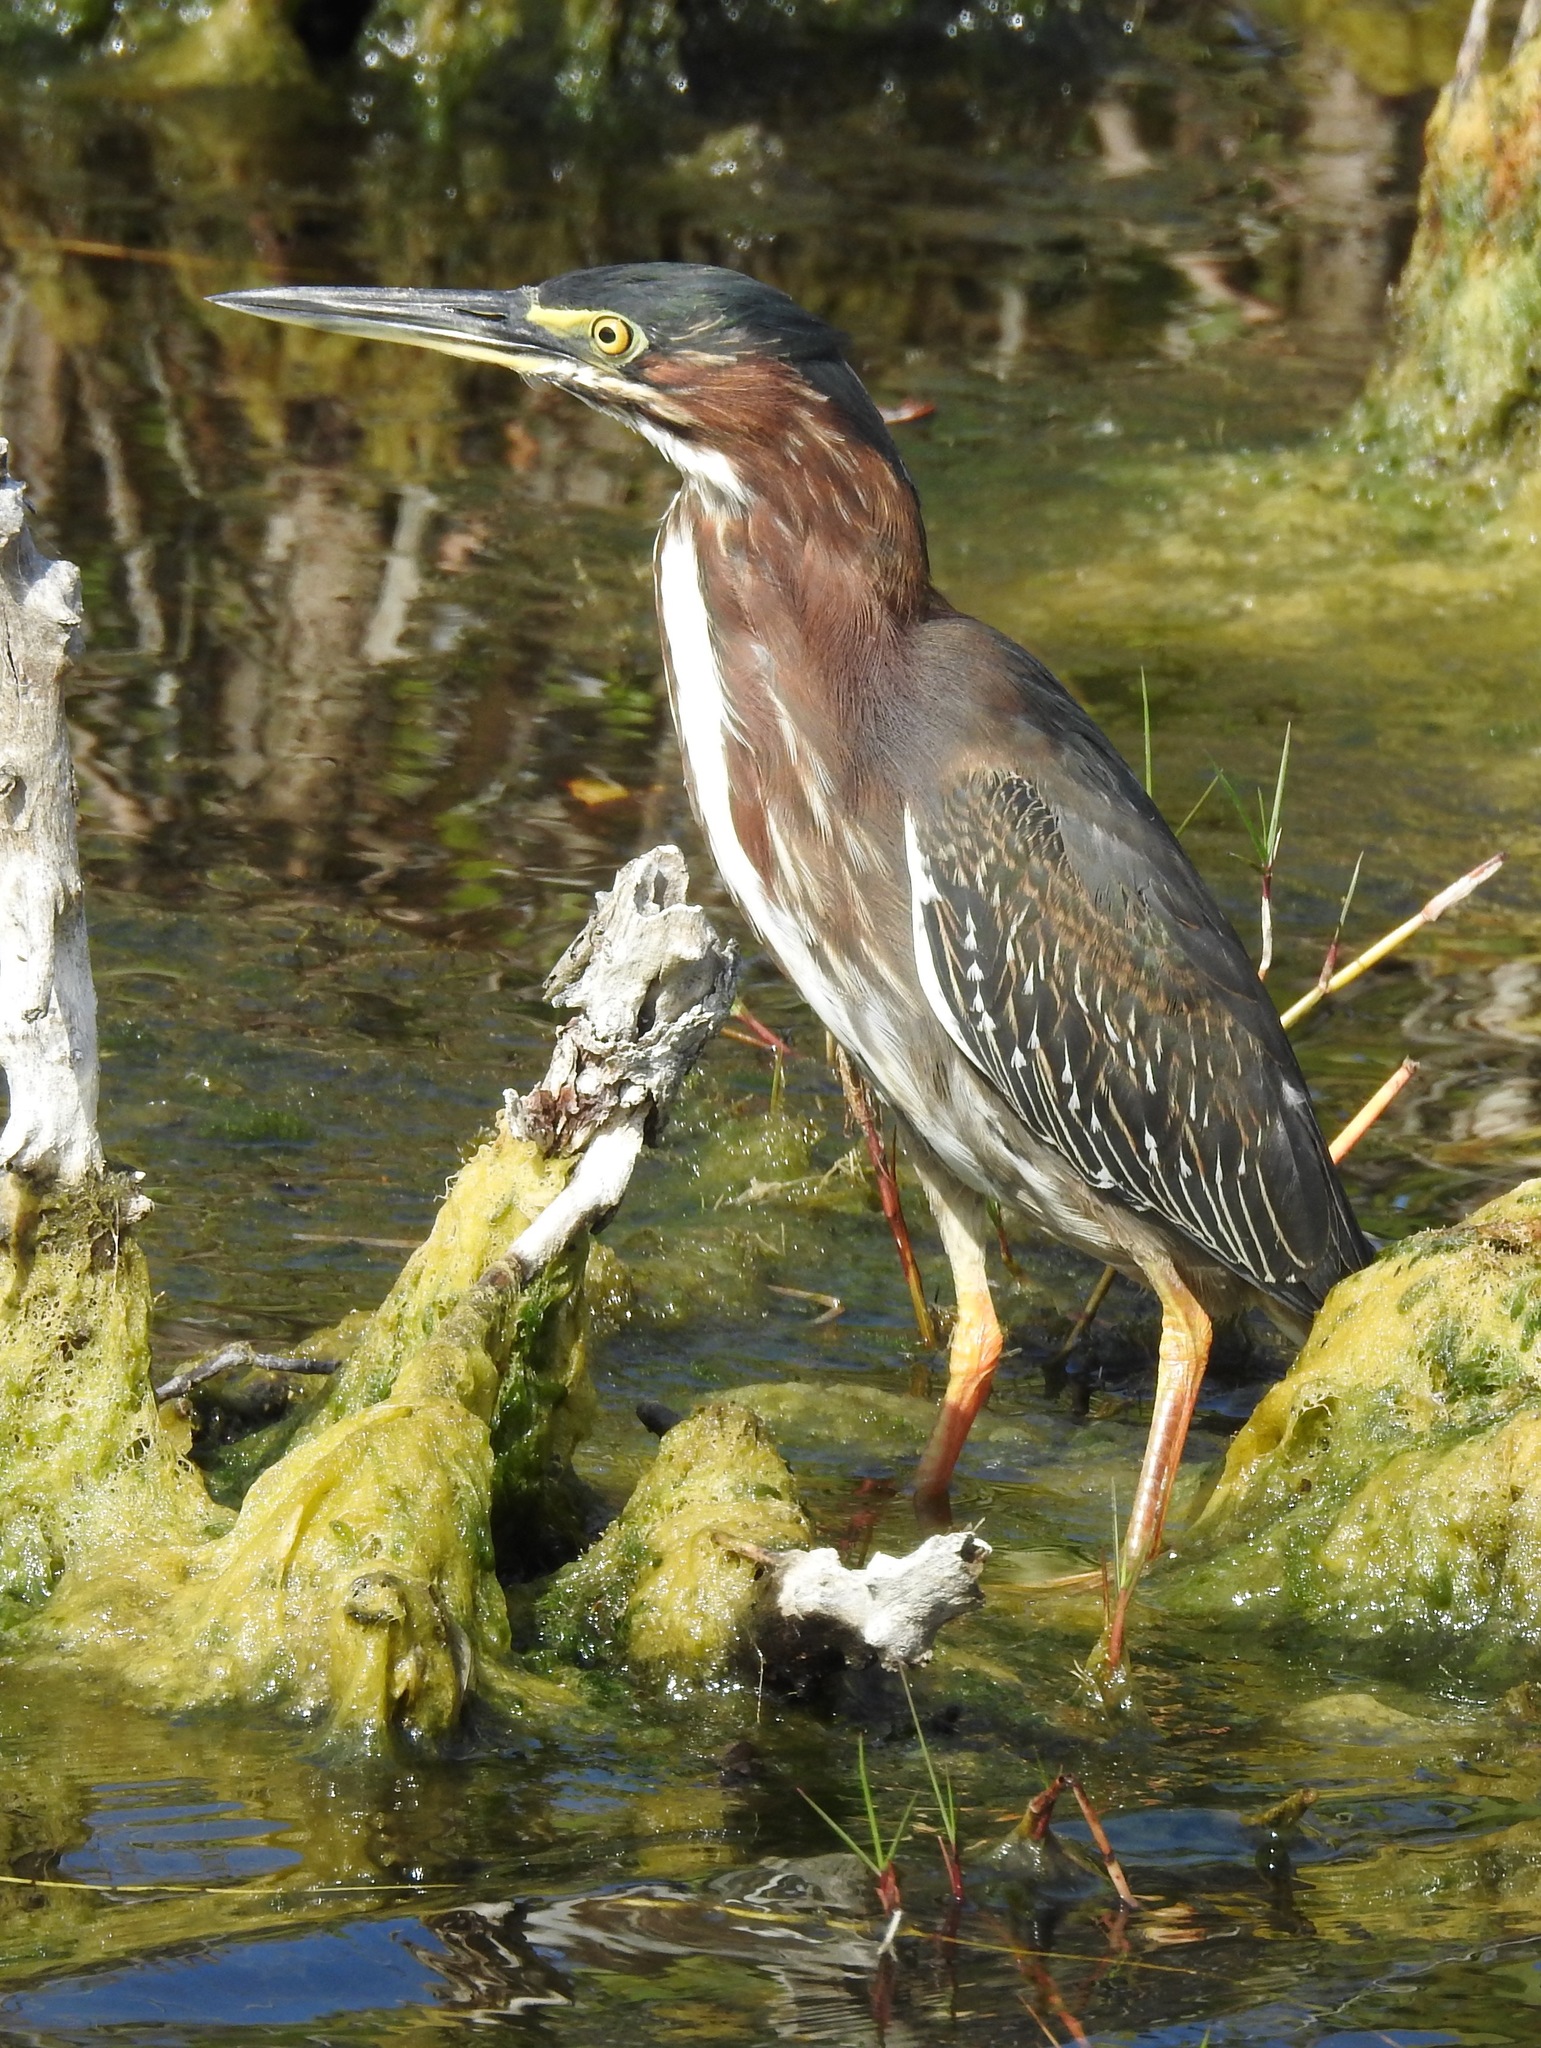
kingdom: Animalia
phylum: Chordata
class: Aves
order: Pelecaniformes
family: Ardeidae
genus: Butorides
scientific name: Butorides virescens
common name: Green heron
